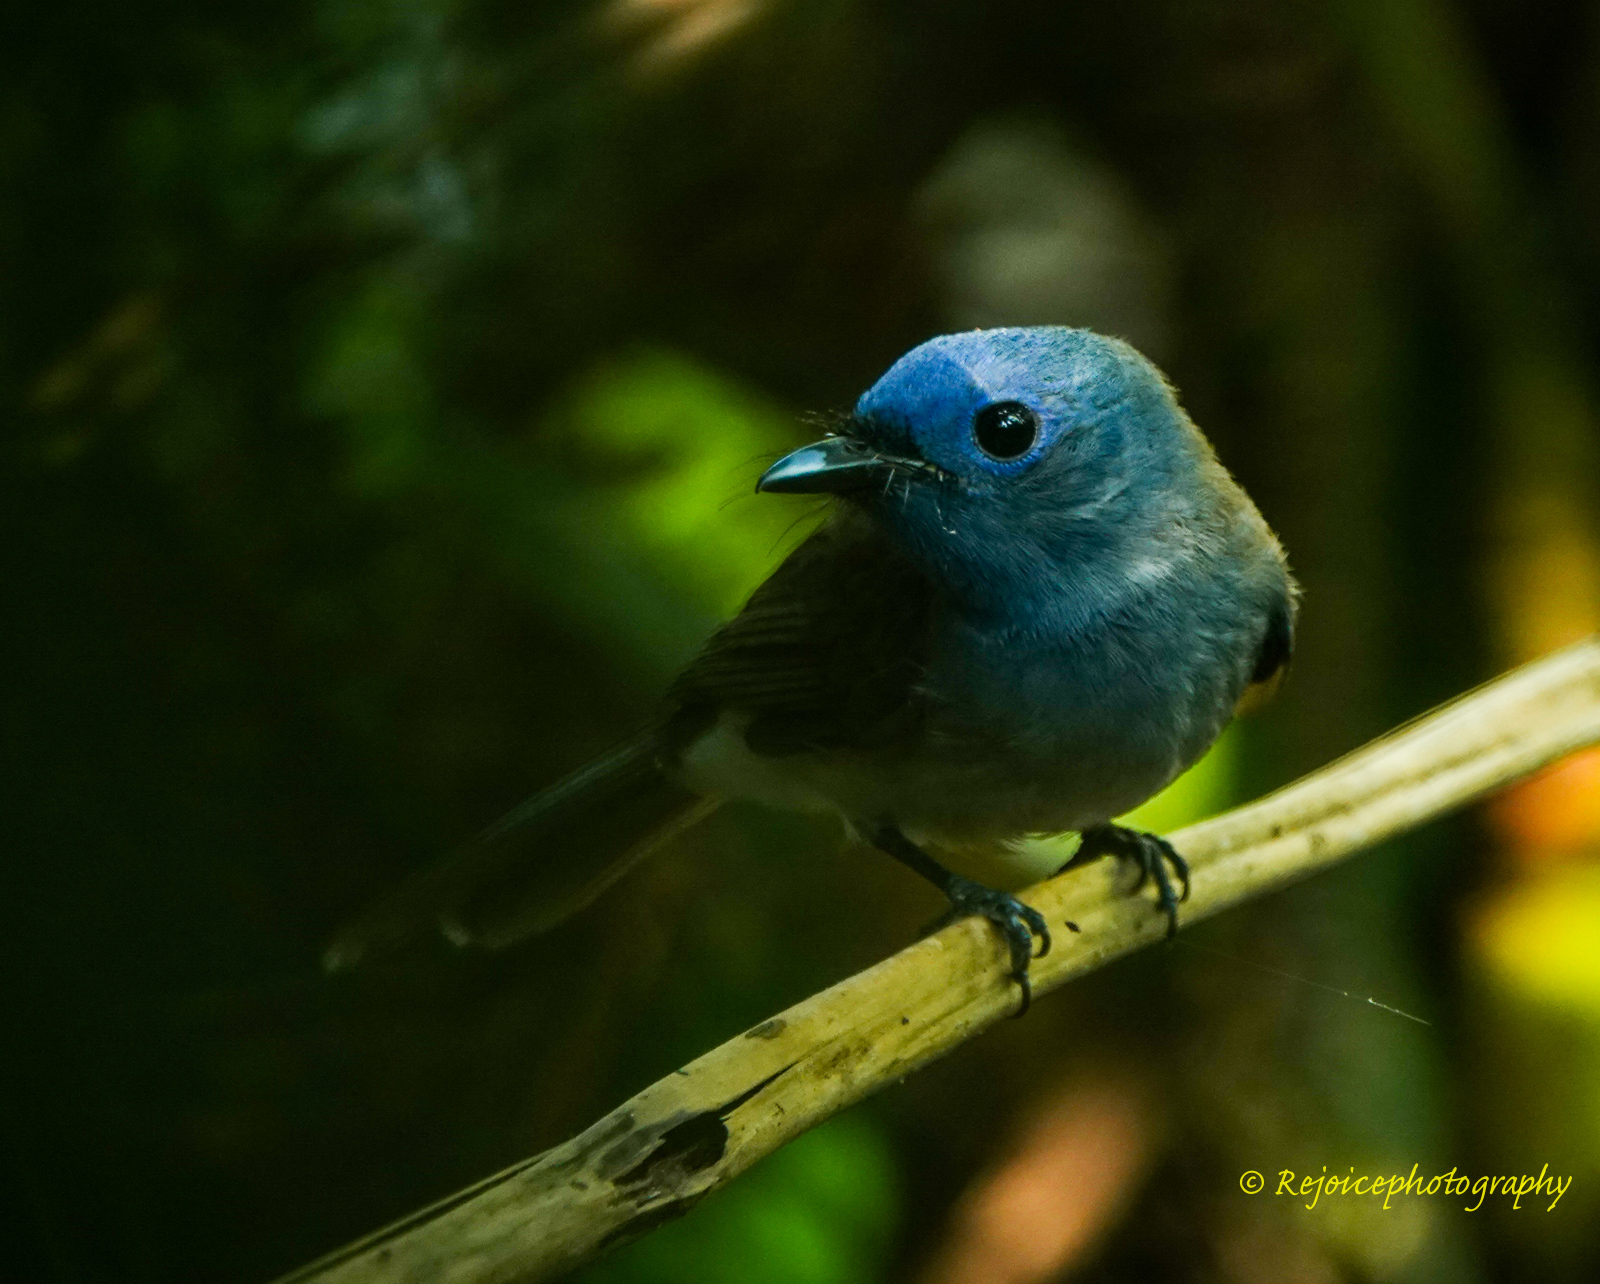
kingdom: Animalia
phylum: Chordata
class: Aves
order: Passeriformes
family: Monarchidae
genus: Hypothymis
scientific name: Hypothymis azurea
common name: Black-naped monarch
